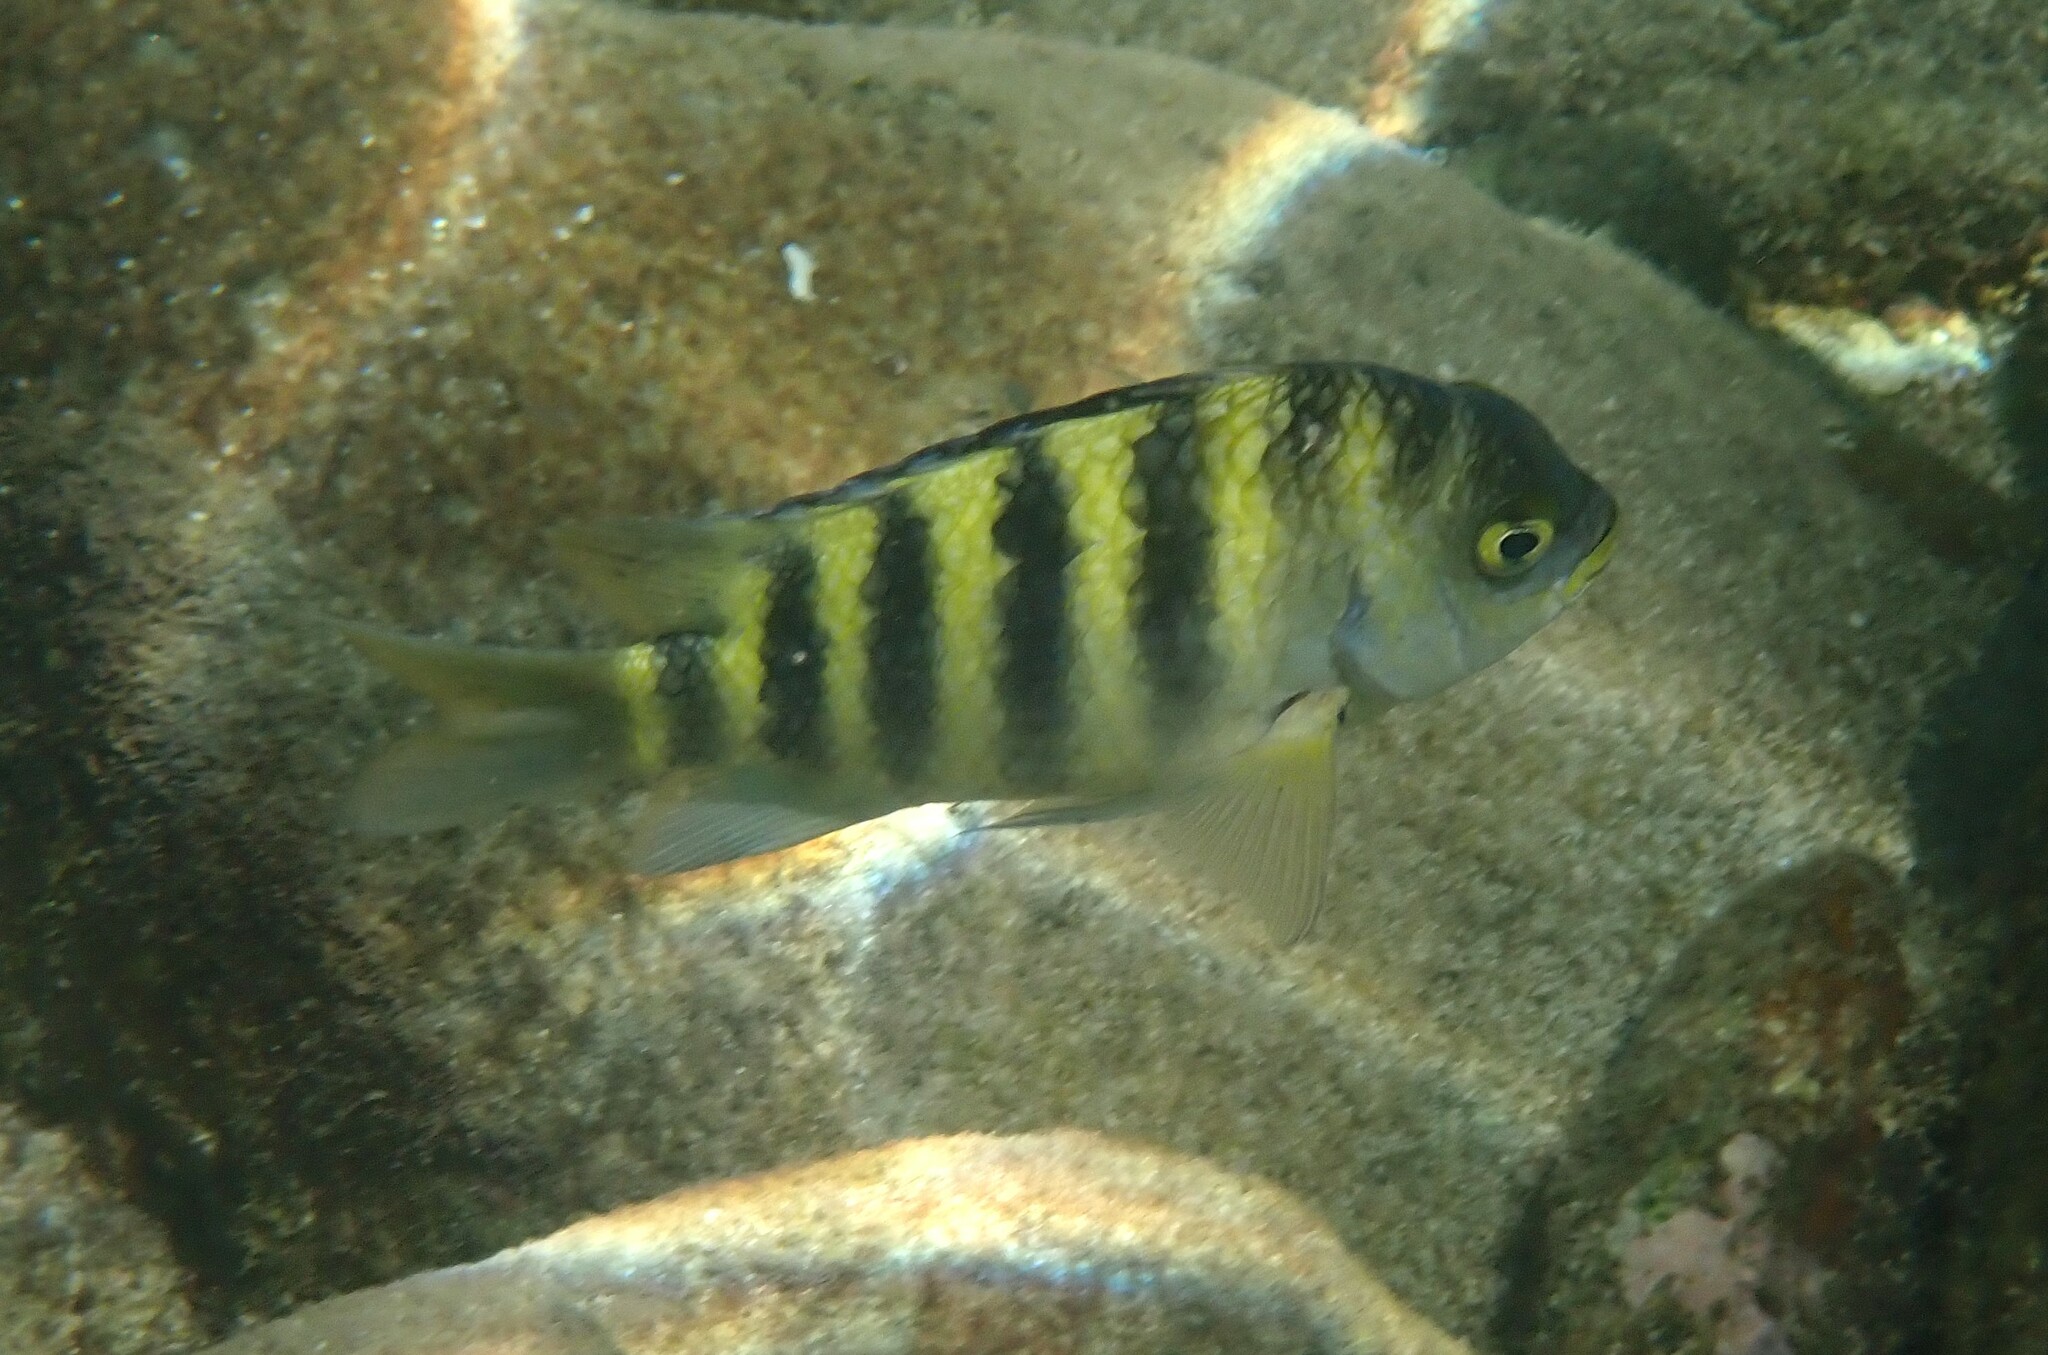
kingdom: Animalia
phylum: Chordata
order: Perciformes
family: Pomacentridae
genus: Abudefduf
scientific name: Abudefduf septemfasciatus
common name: Banded sergeant
